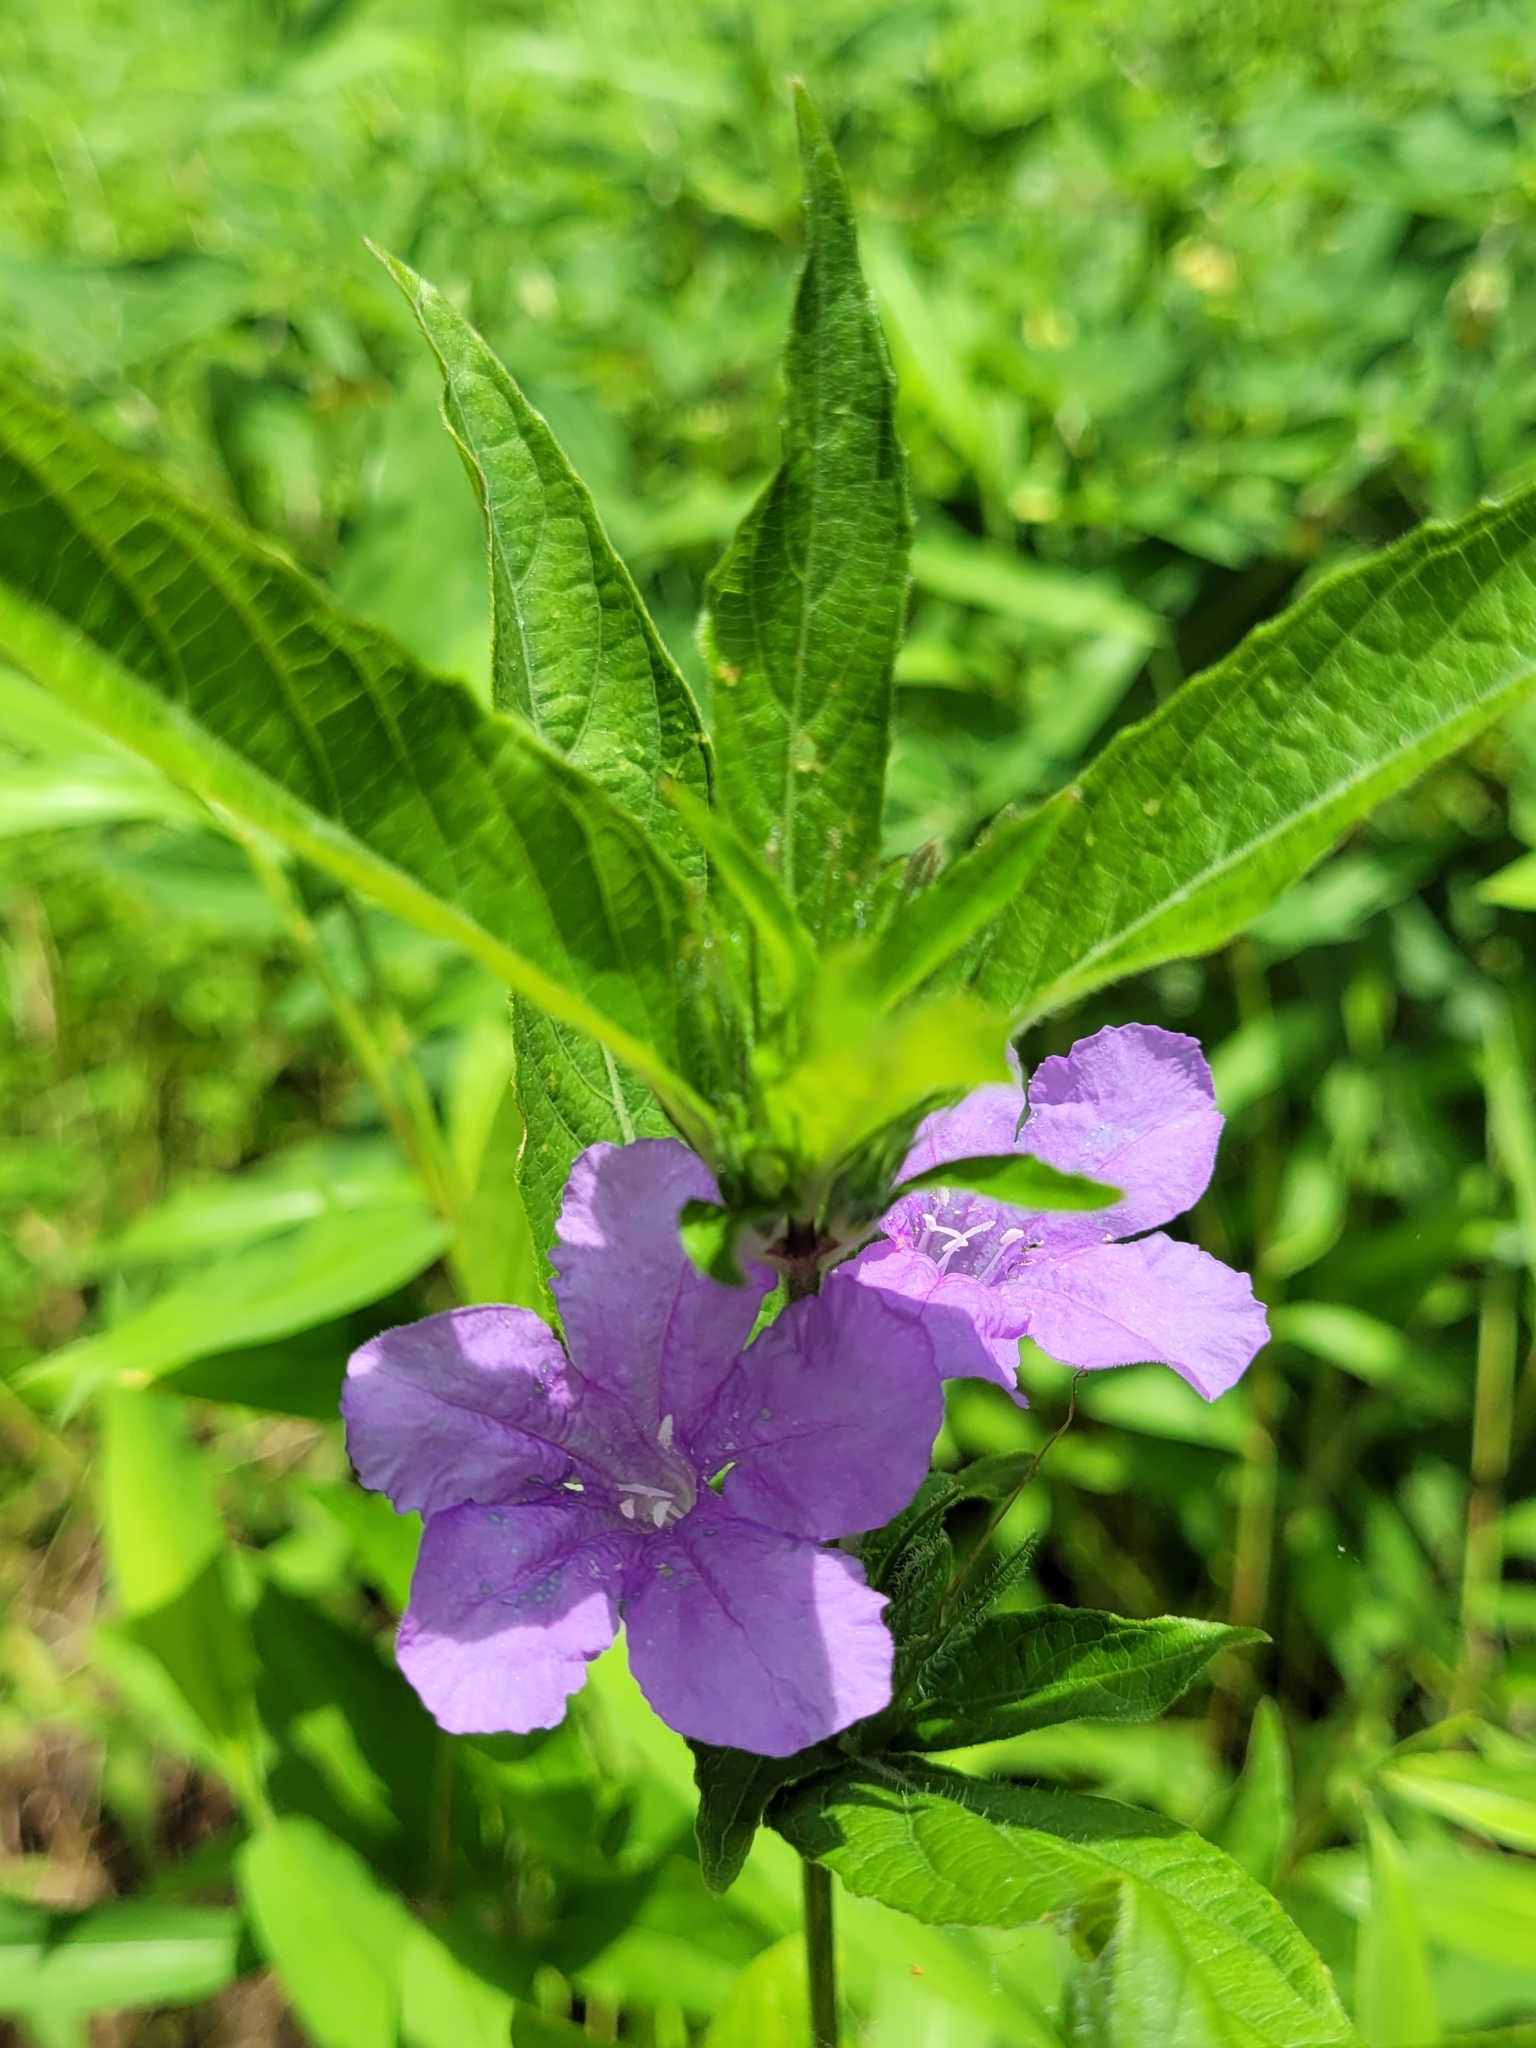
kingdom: Plantae
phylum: Tracheophyta
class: Magnoliopsida
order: Lamiales
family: Acanthaceae
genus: Ruellia
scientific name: Ruellia caroliniensis
